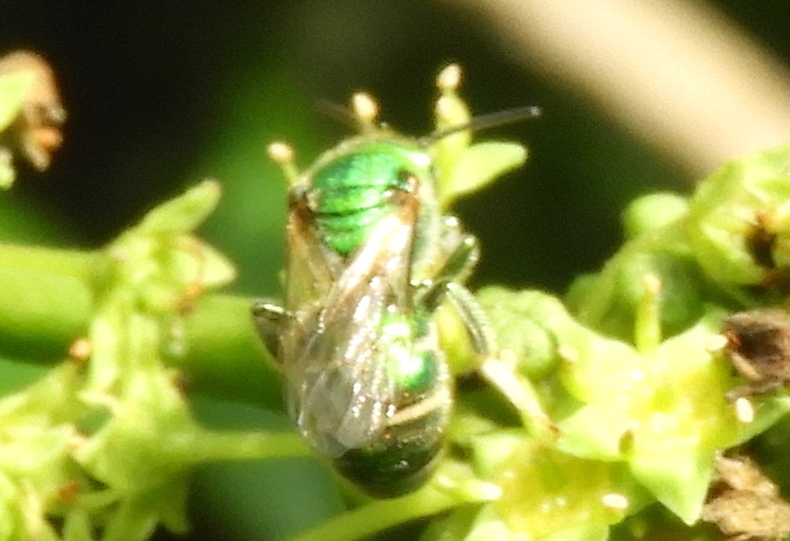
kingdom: Animalia
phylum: Arthropoda
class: Insecta
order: Hymenoptera
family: Halictidae
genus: Augochloropsis
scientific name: Augochloropsis
